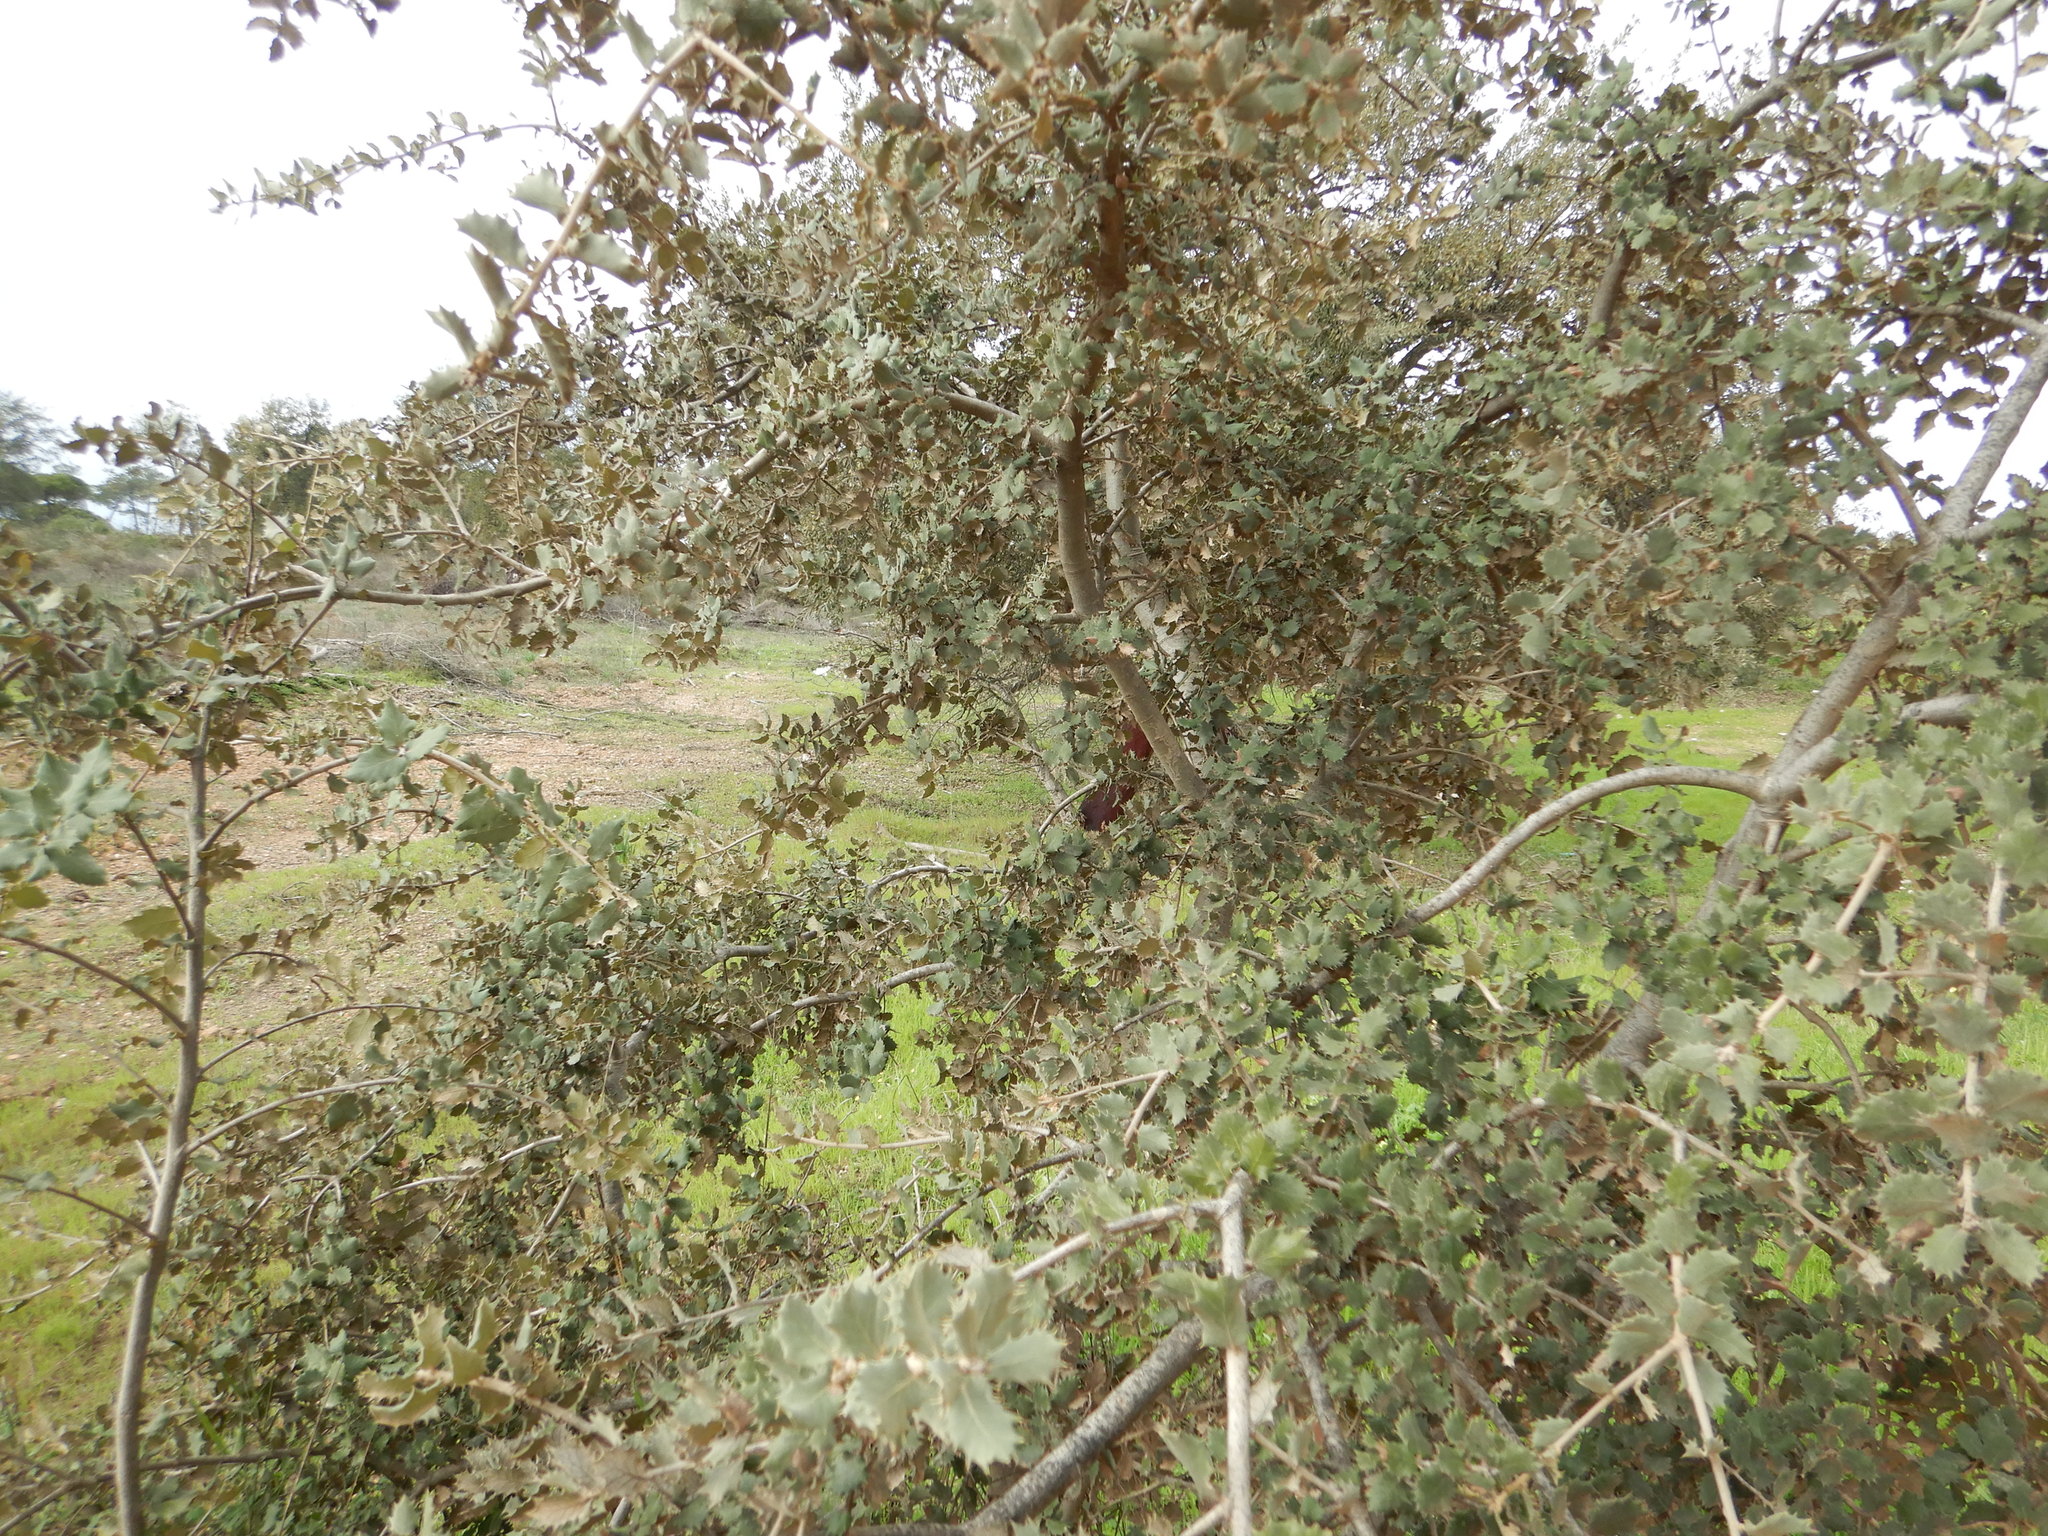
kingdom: Plantae
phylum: Tracheophyta
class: Magnoliopsida
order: Fagales
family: Fagaceae
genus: Quercus
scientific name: Quercus rotundifolia
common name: Holm oak
